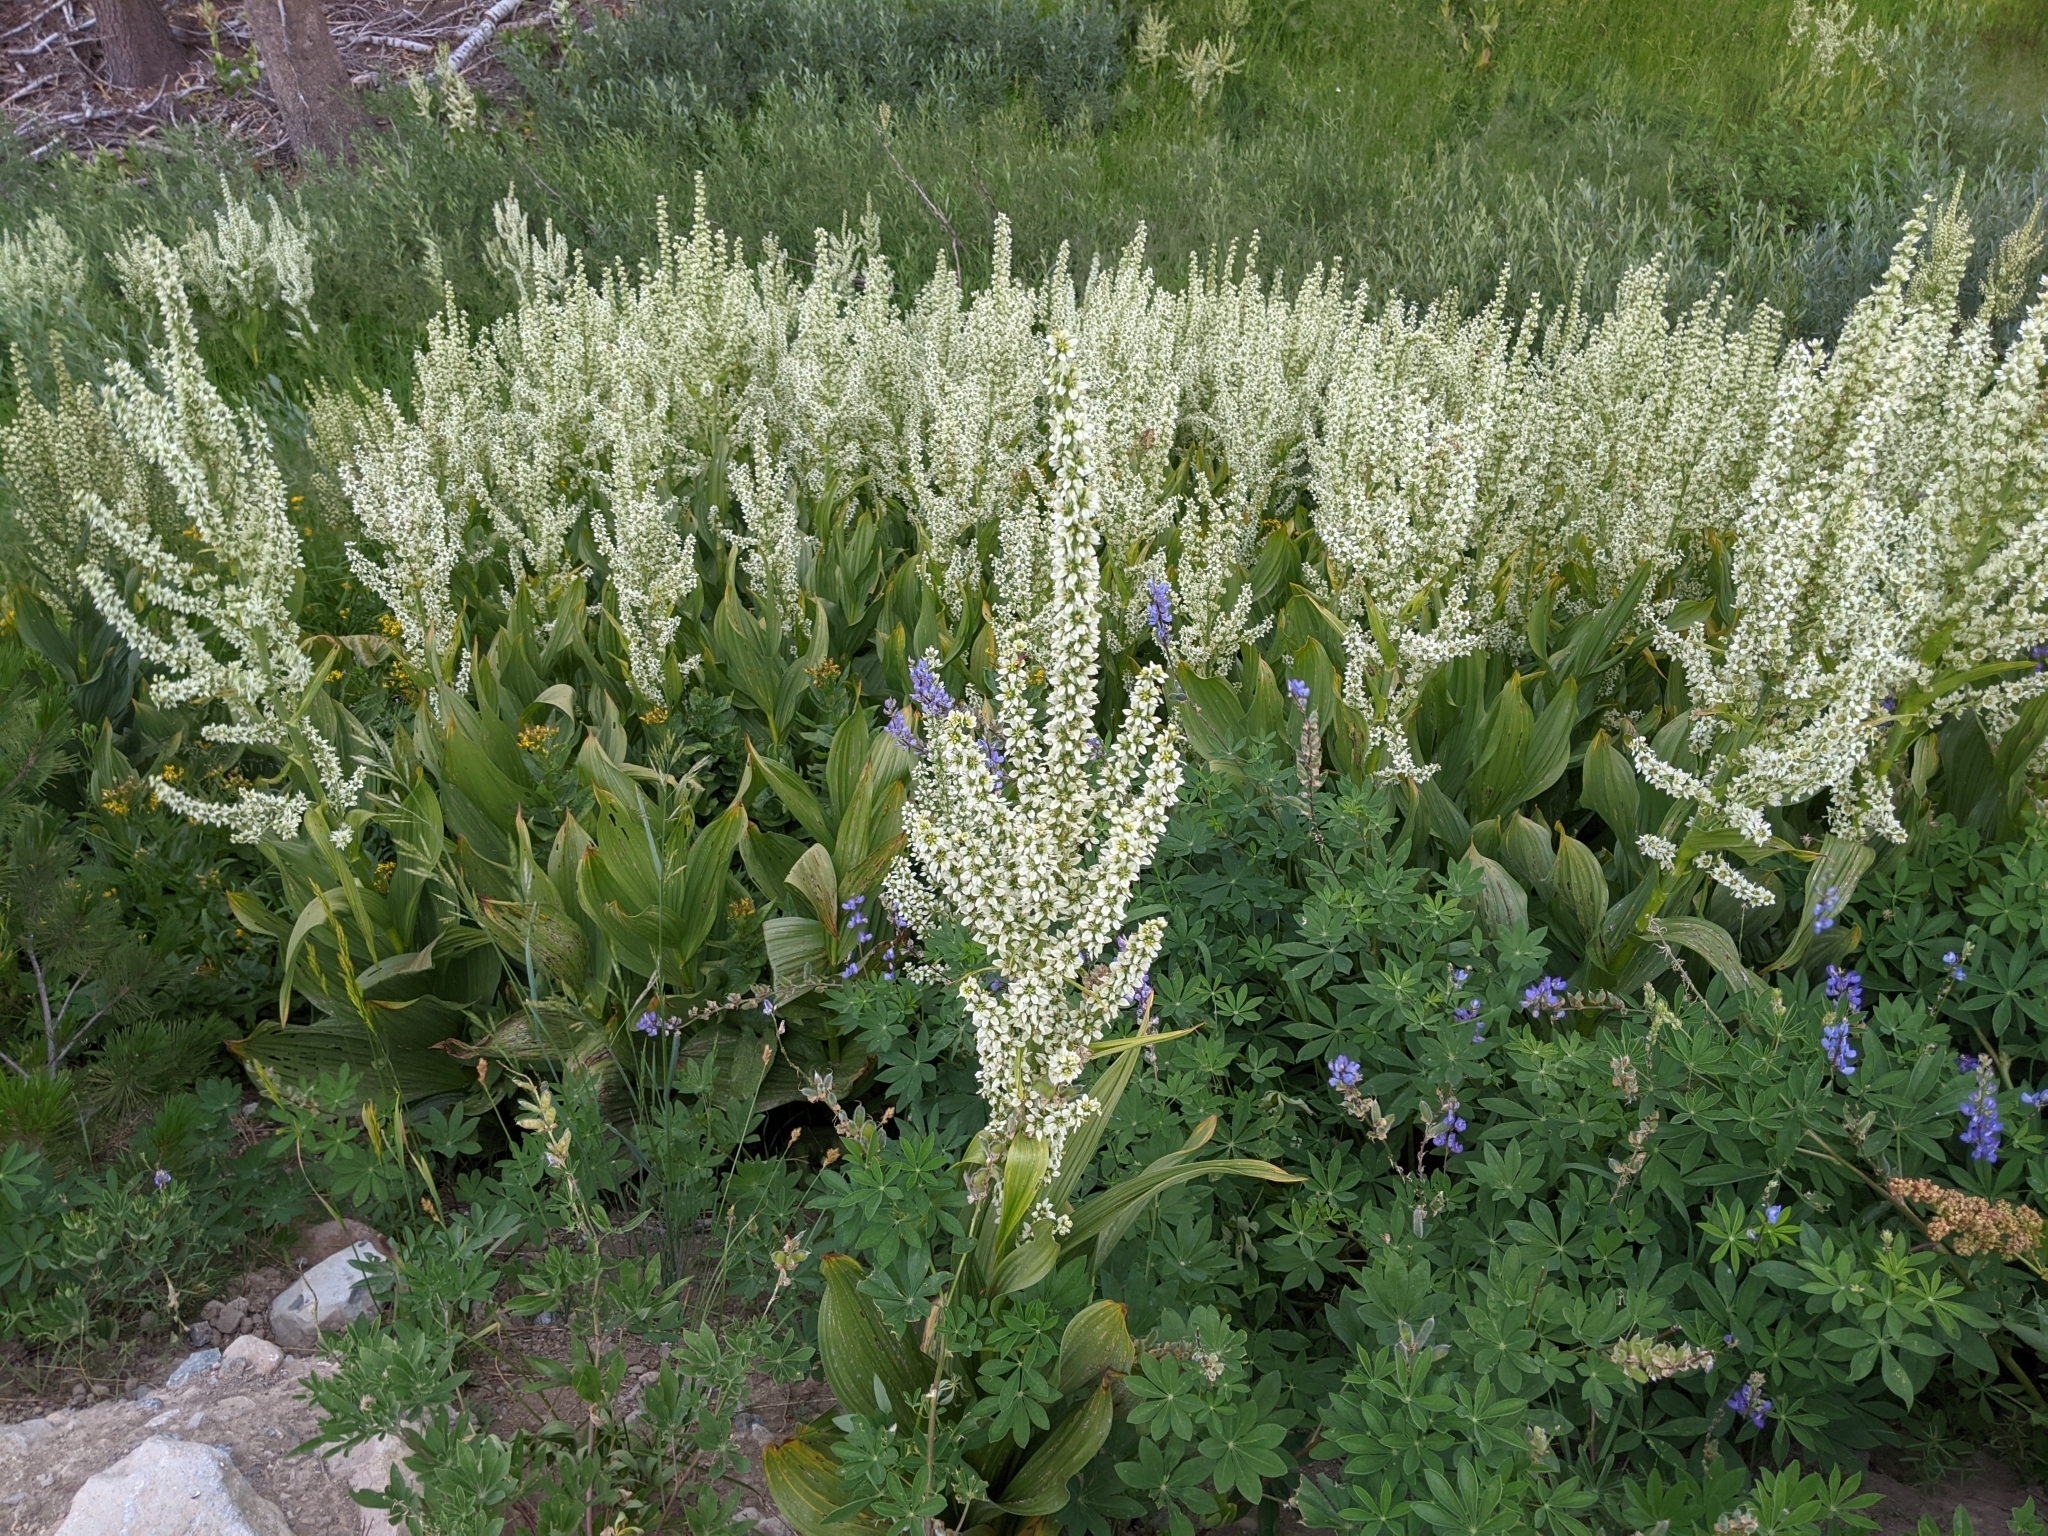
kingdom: Plantae
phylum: Tracheophyta
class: Liliopsida
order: Liliales
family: Melanthiaceae
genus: Veratrum
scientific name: Veratrum californicum
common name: California veratrum
